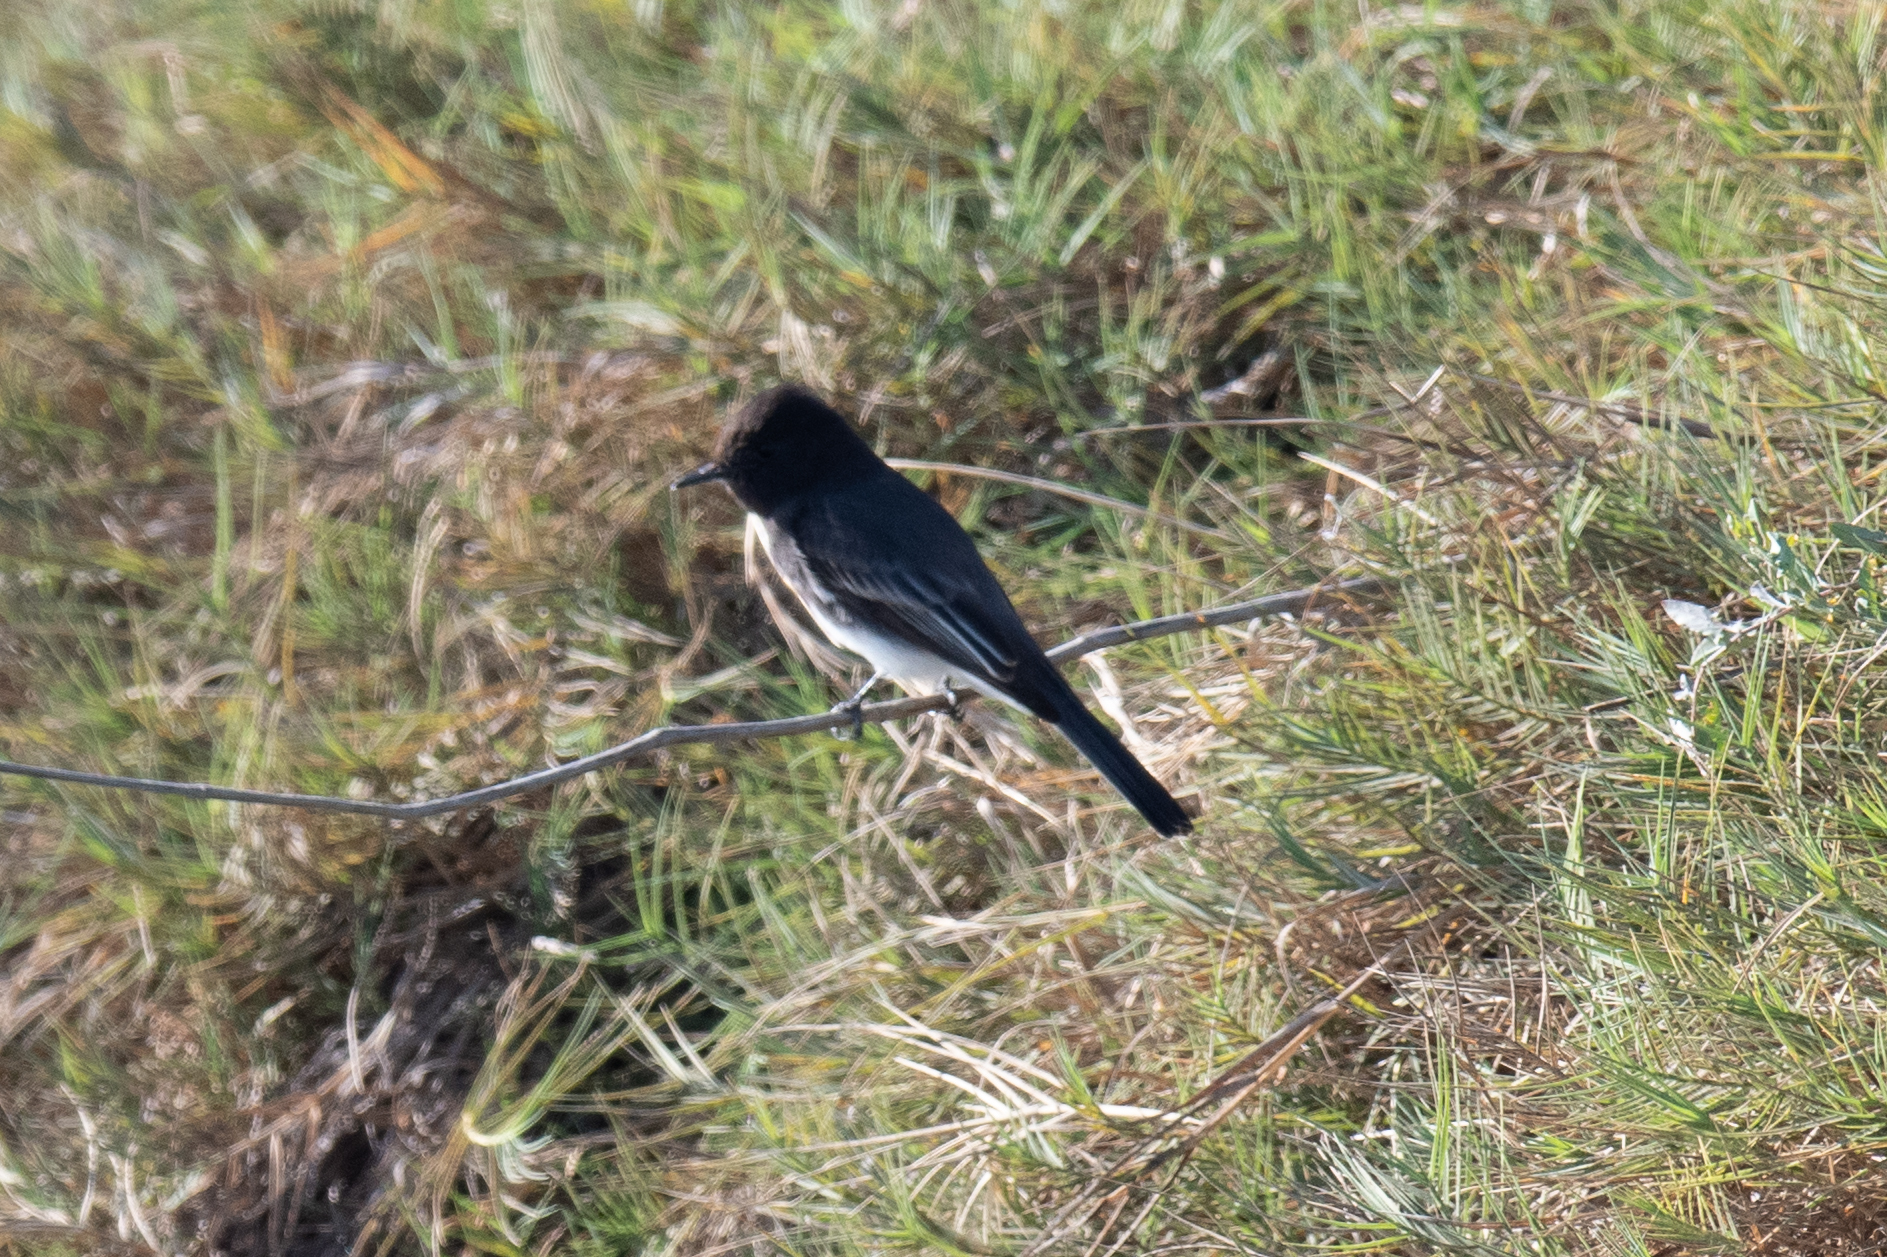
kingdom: Animalia
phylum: Chordata
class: Aves
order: Passeriformes
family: Tyrannidae
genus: Sayornis
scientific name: Sayornis nigricans
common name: Black phoebe
